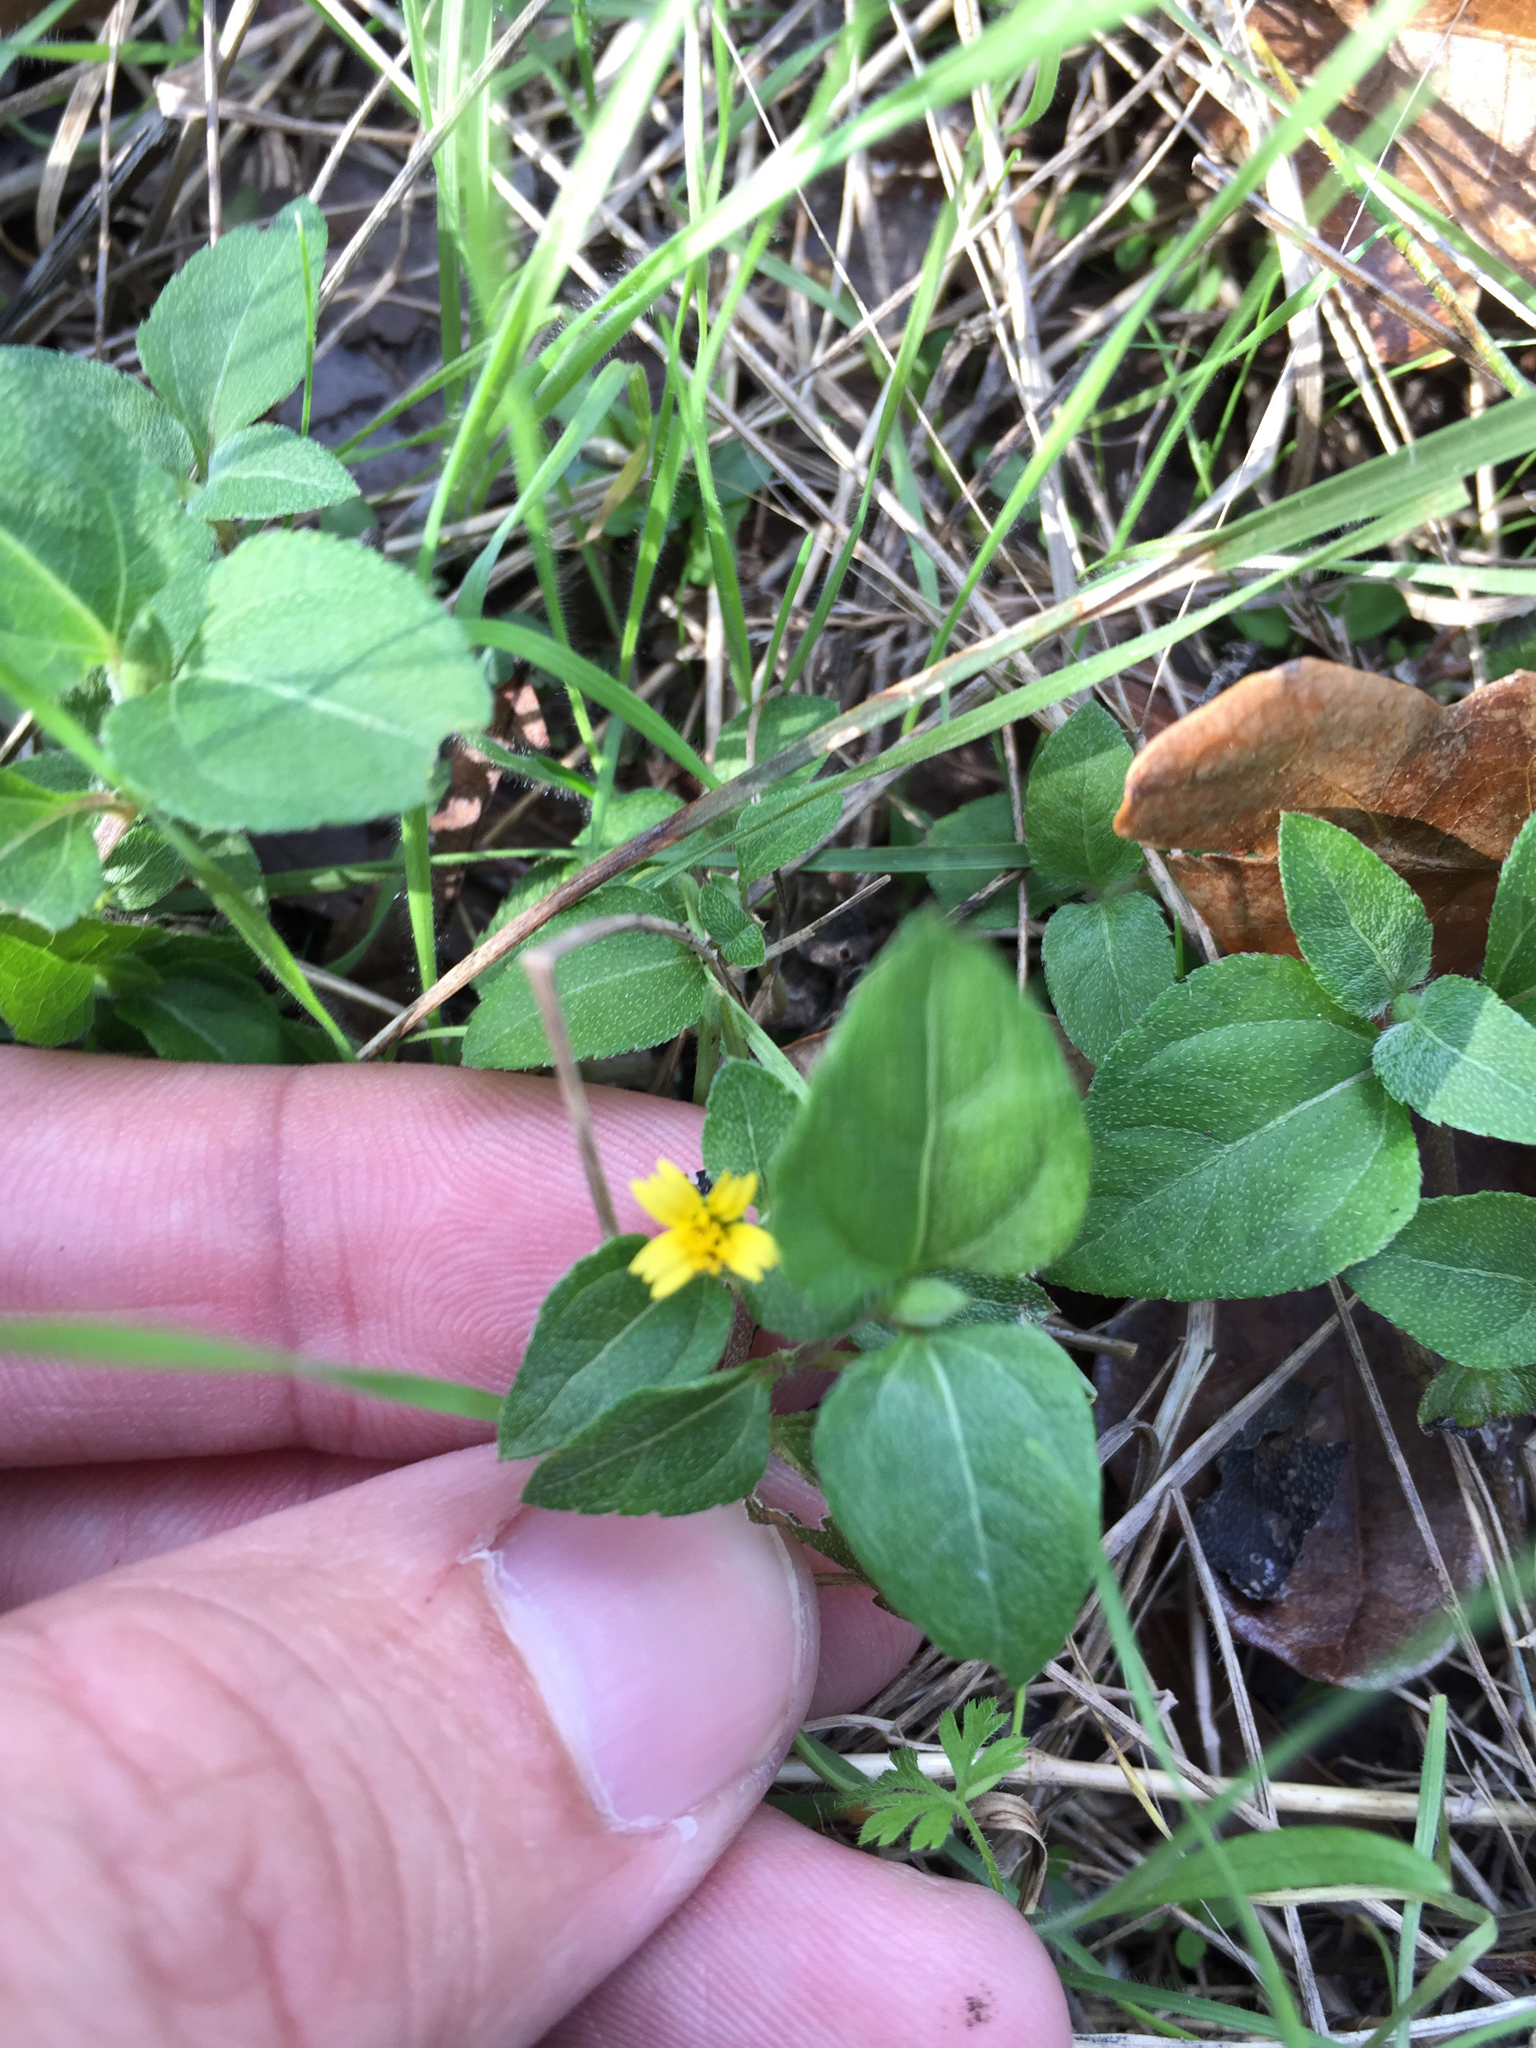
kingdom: Plantae
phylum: Tracheophyta
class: Magnoliopsida
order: Asterales
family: Asteraceae
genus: Calyptocarpus
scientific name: Calyptocarpus vialis
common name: Straggler daisy
